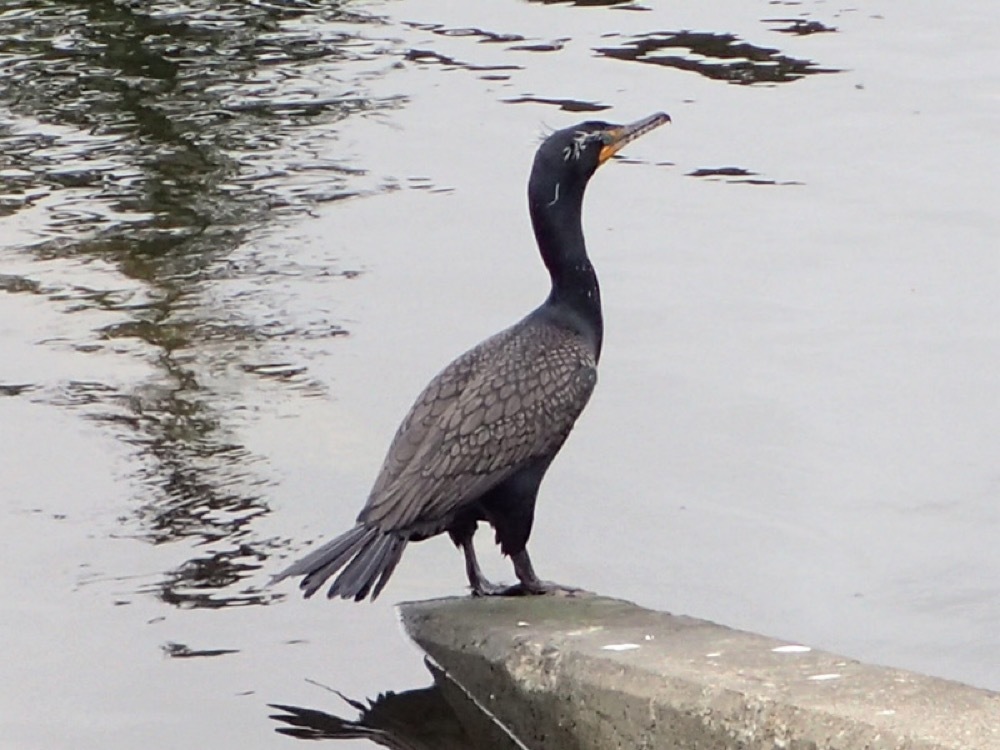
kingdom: Animalia
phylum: Chordata
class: Aves
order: Suliformes
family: Phalacrocoracidae
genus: Phalacrocorax
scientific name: Phalacrocorax auritus
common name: Double-crested cormorant
